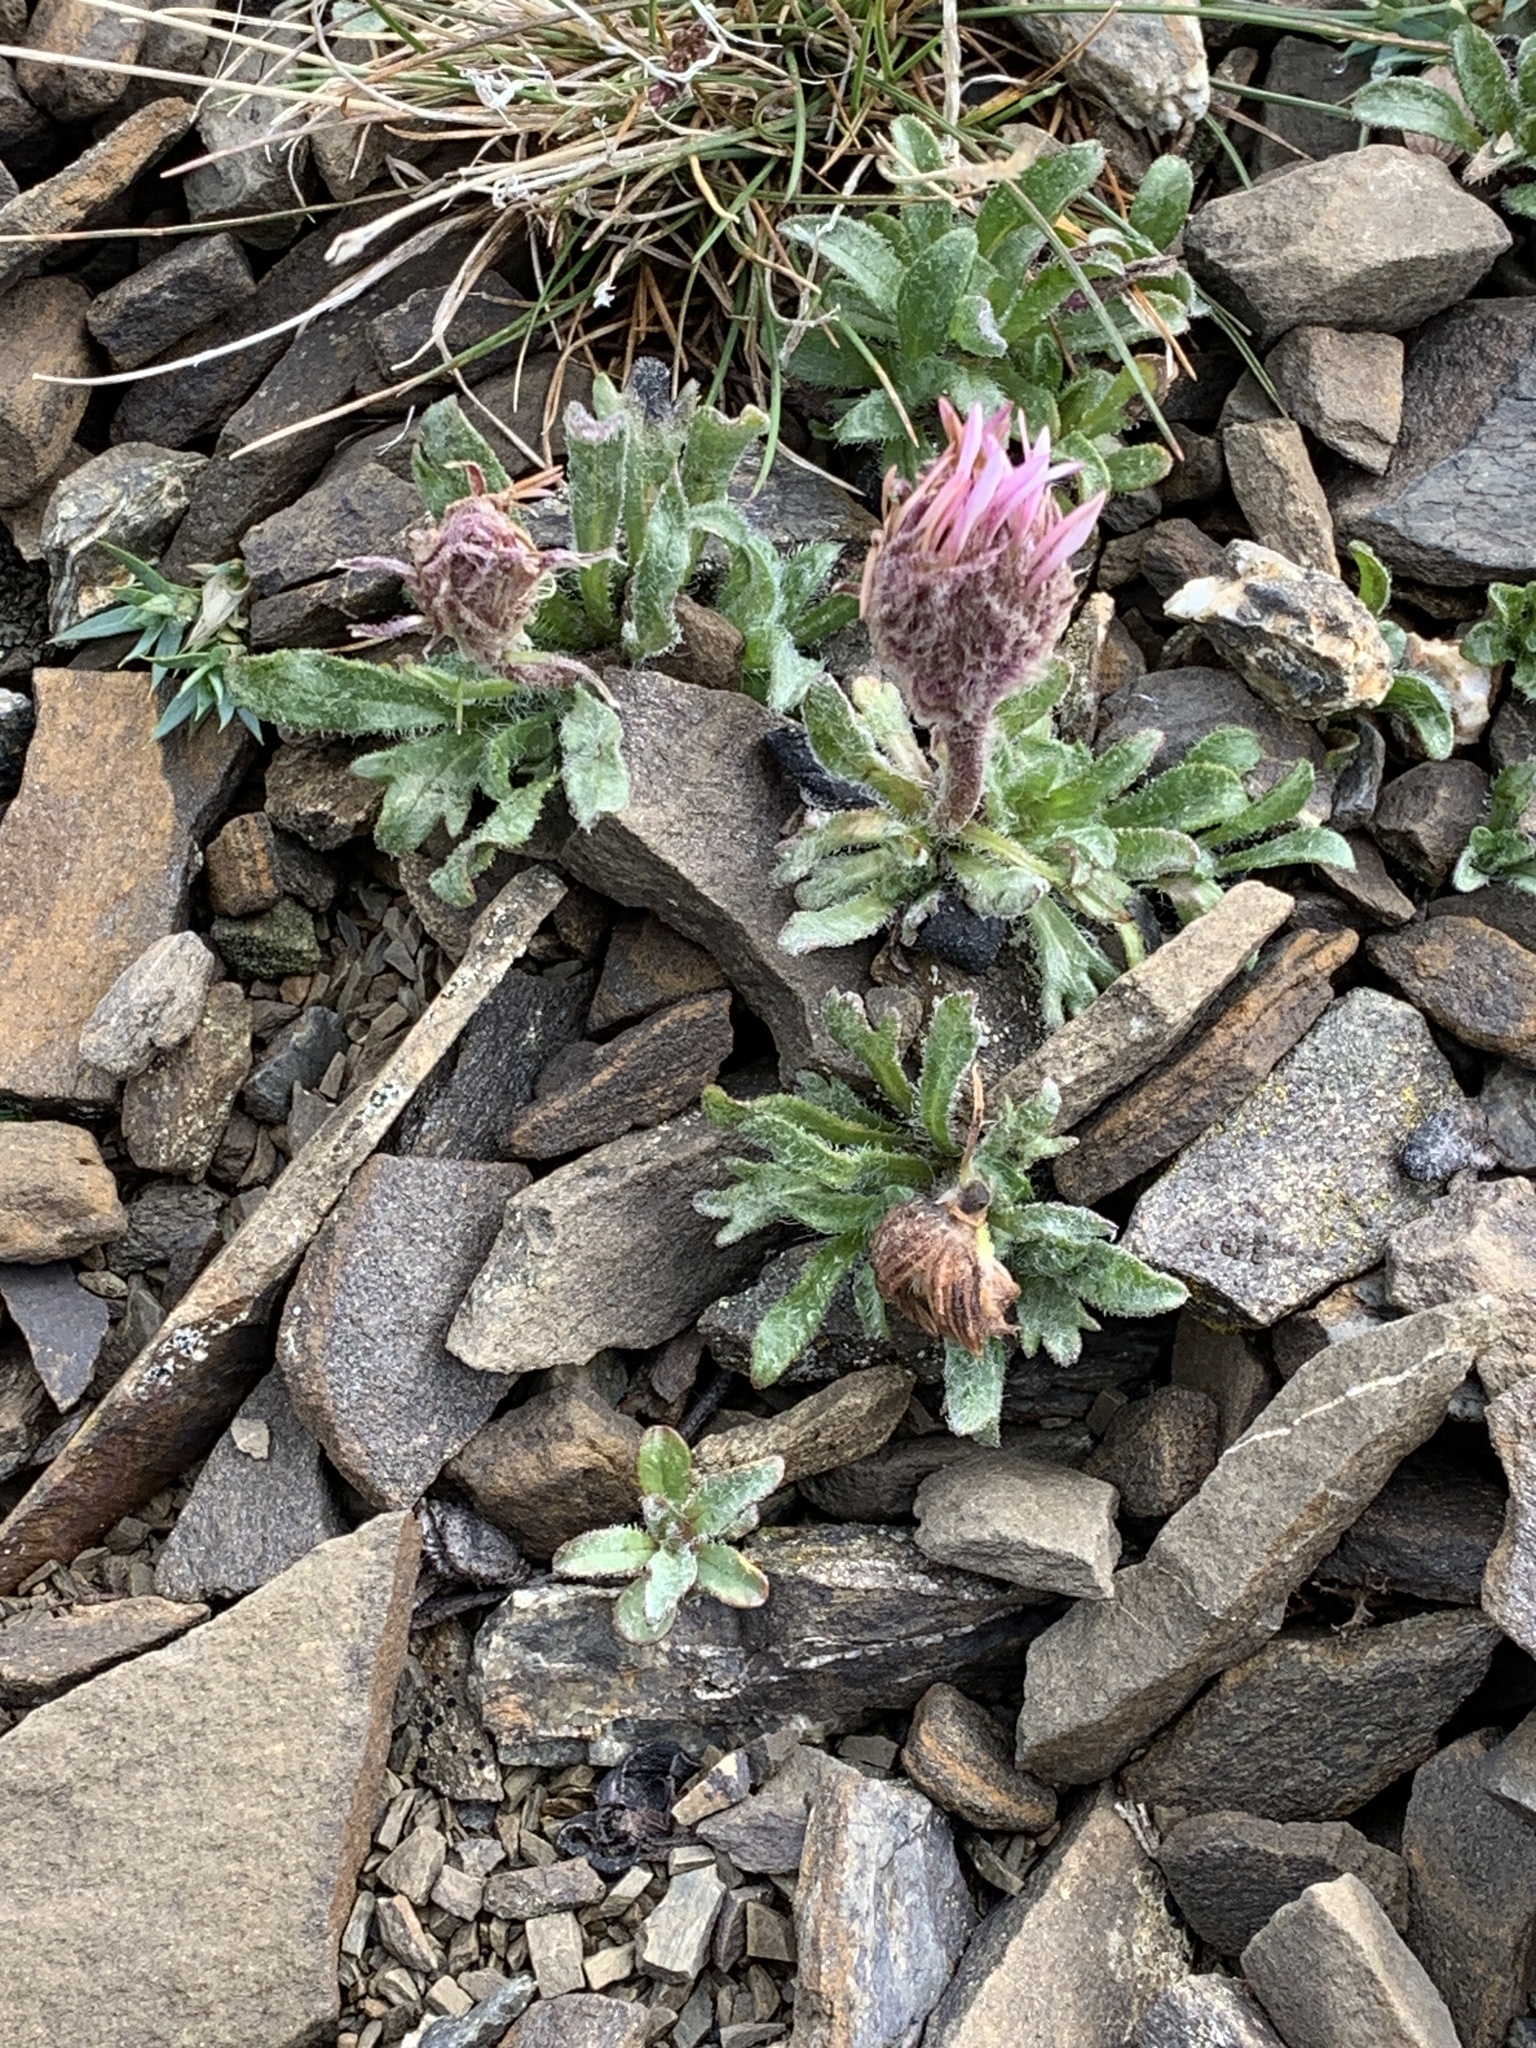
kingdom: Plantae
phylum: Tracheophyta
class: Magnoliopsida
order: Asterales
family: Asteraceae
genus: Erigeron
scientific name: Erigeron lanatus
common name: Hairy daisy
